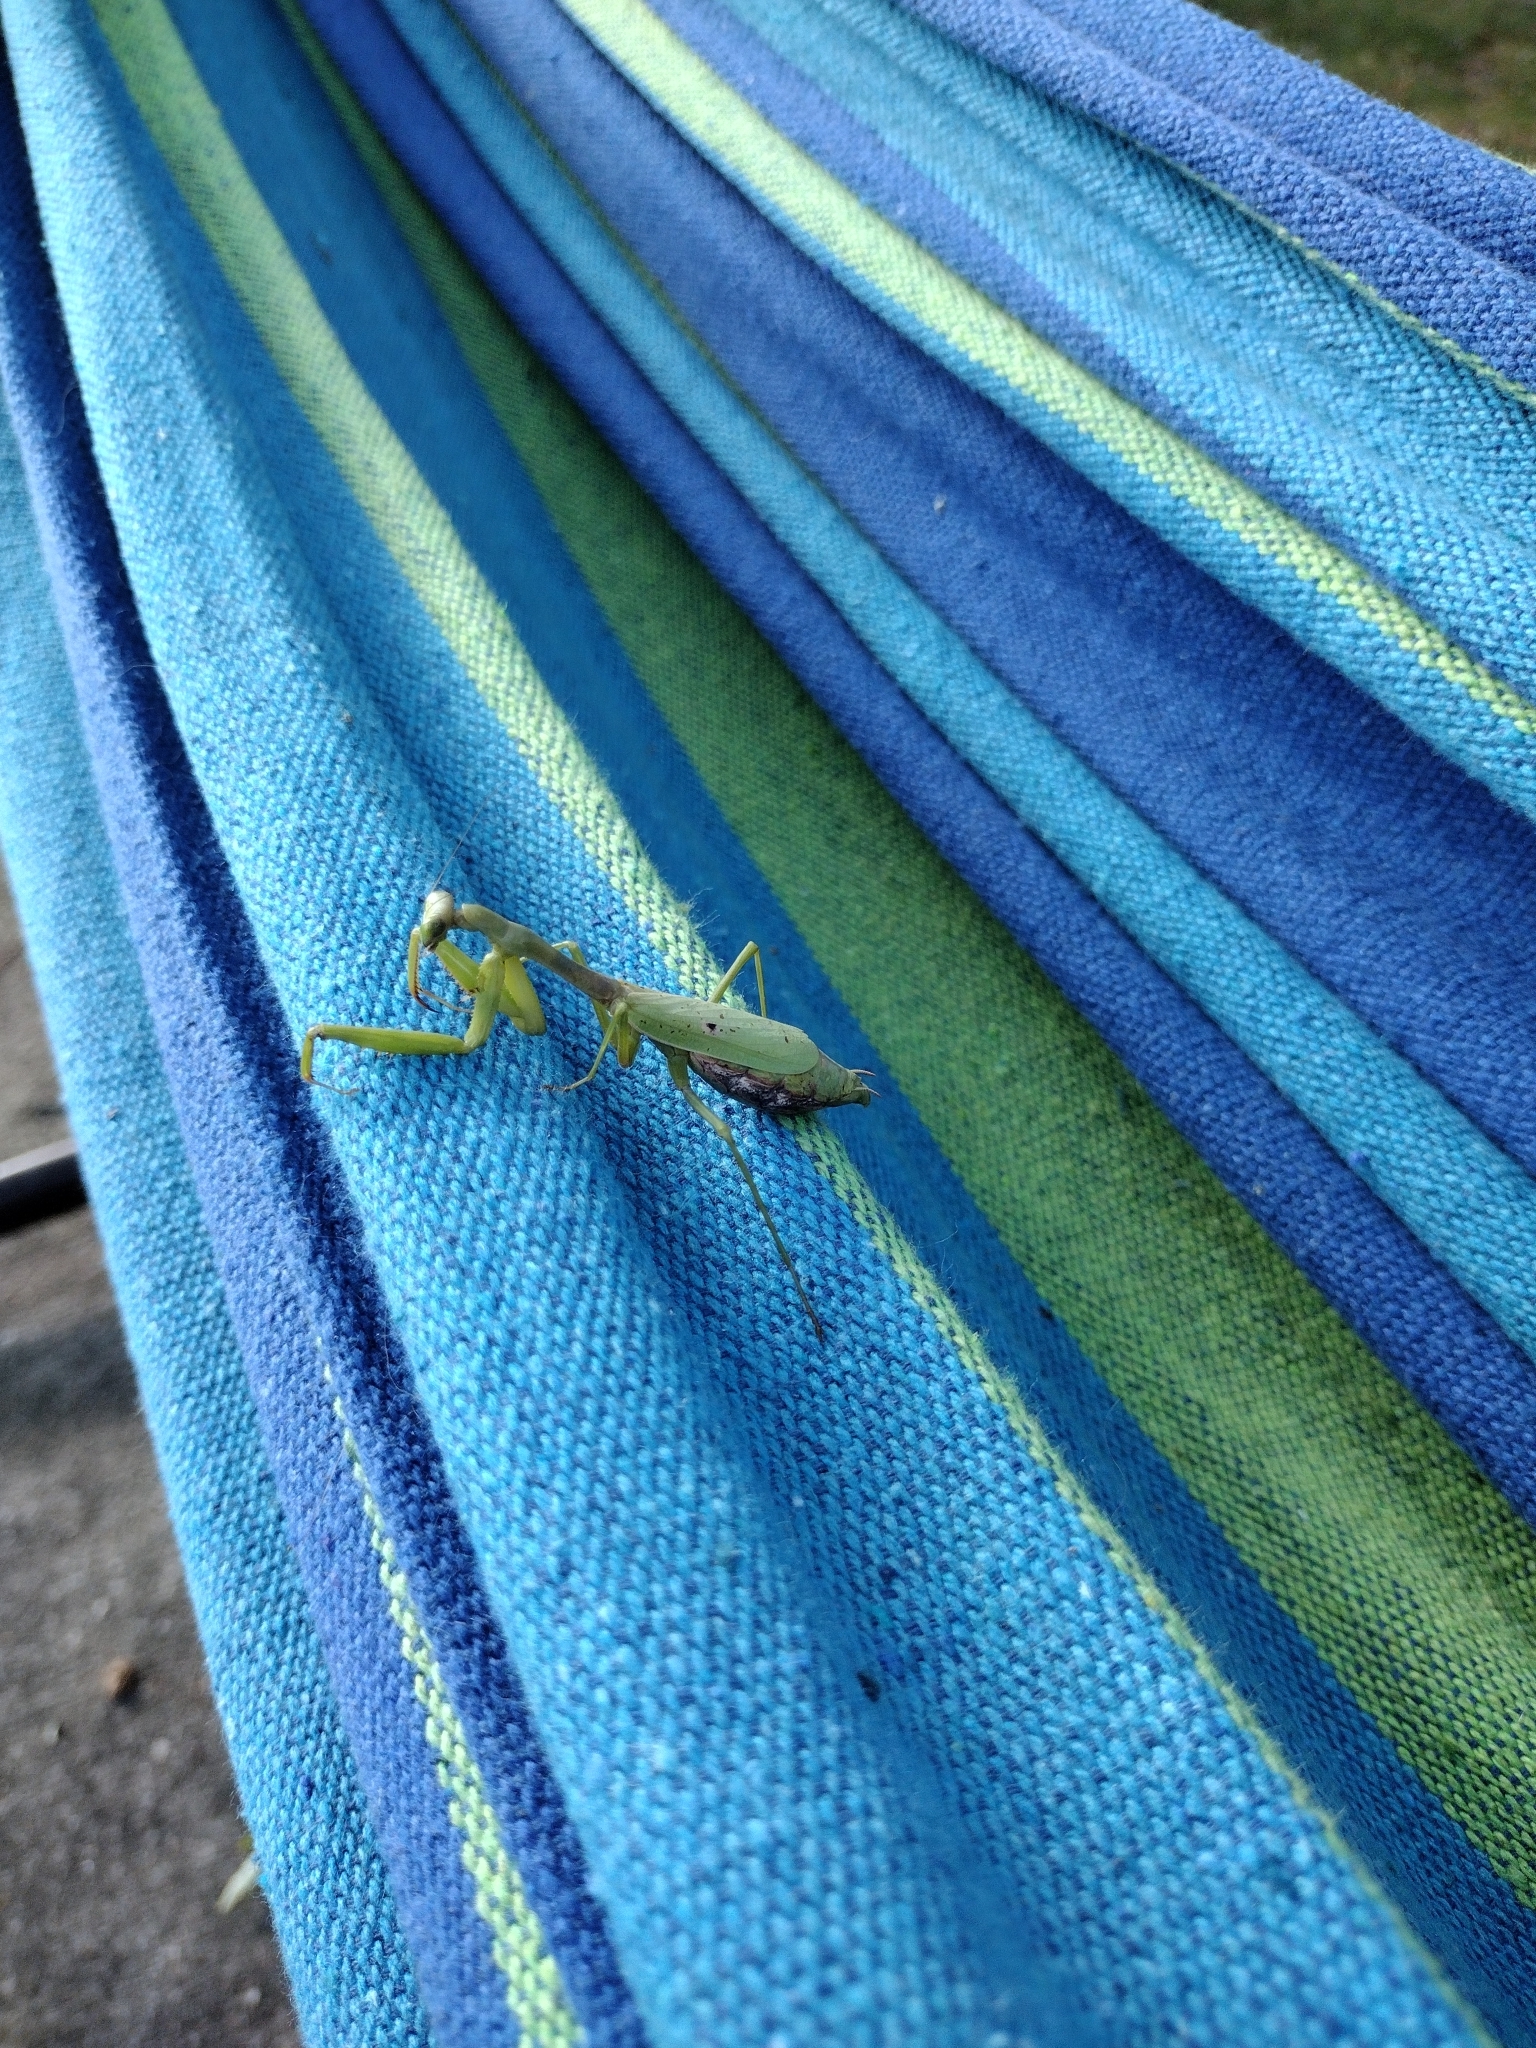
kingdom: Animalia
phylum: Arthropoda
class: Insecta
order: Mantodea
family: Mantidae
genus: Stagmomantis
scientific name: Stagmomantis carolina
